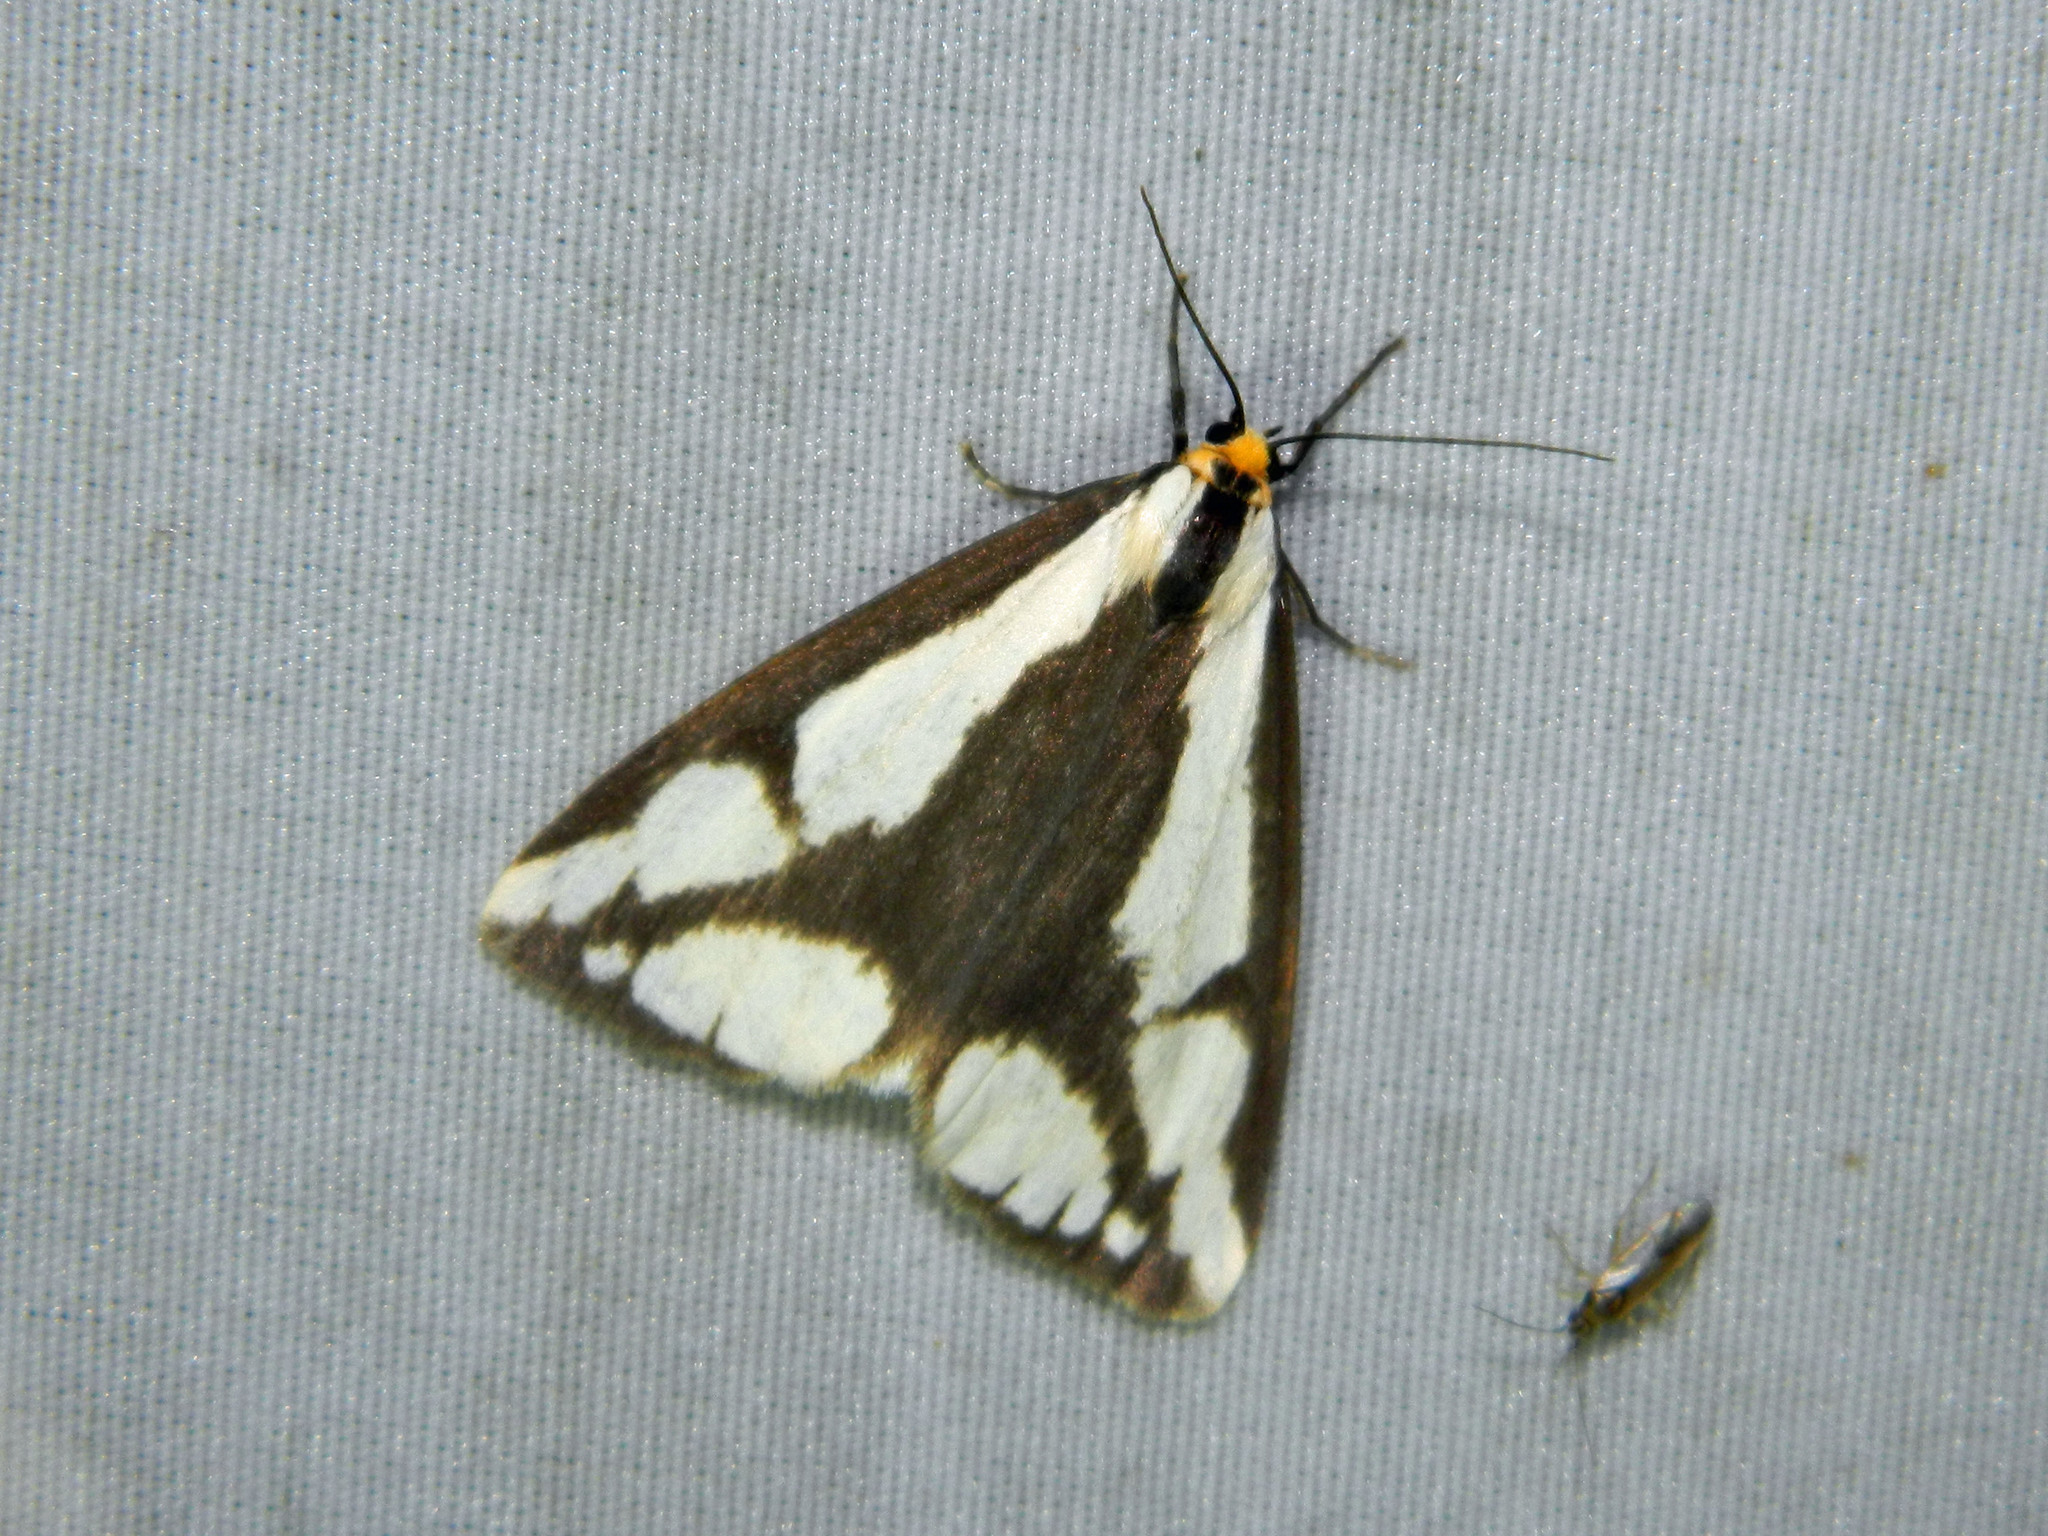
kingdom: Animalia
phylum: Arthropoda
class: Insecta
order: Lepidoptera
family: Erebidae
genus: Haploa
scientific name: Haploa lecontei
